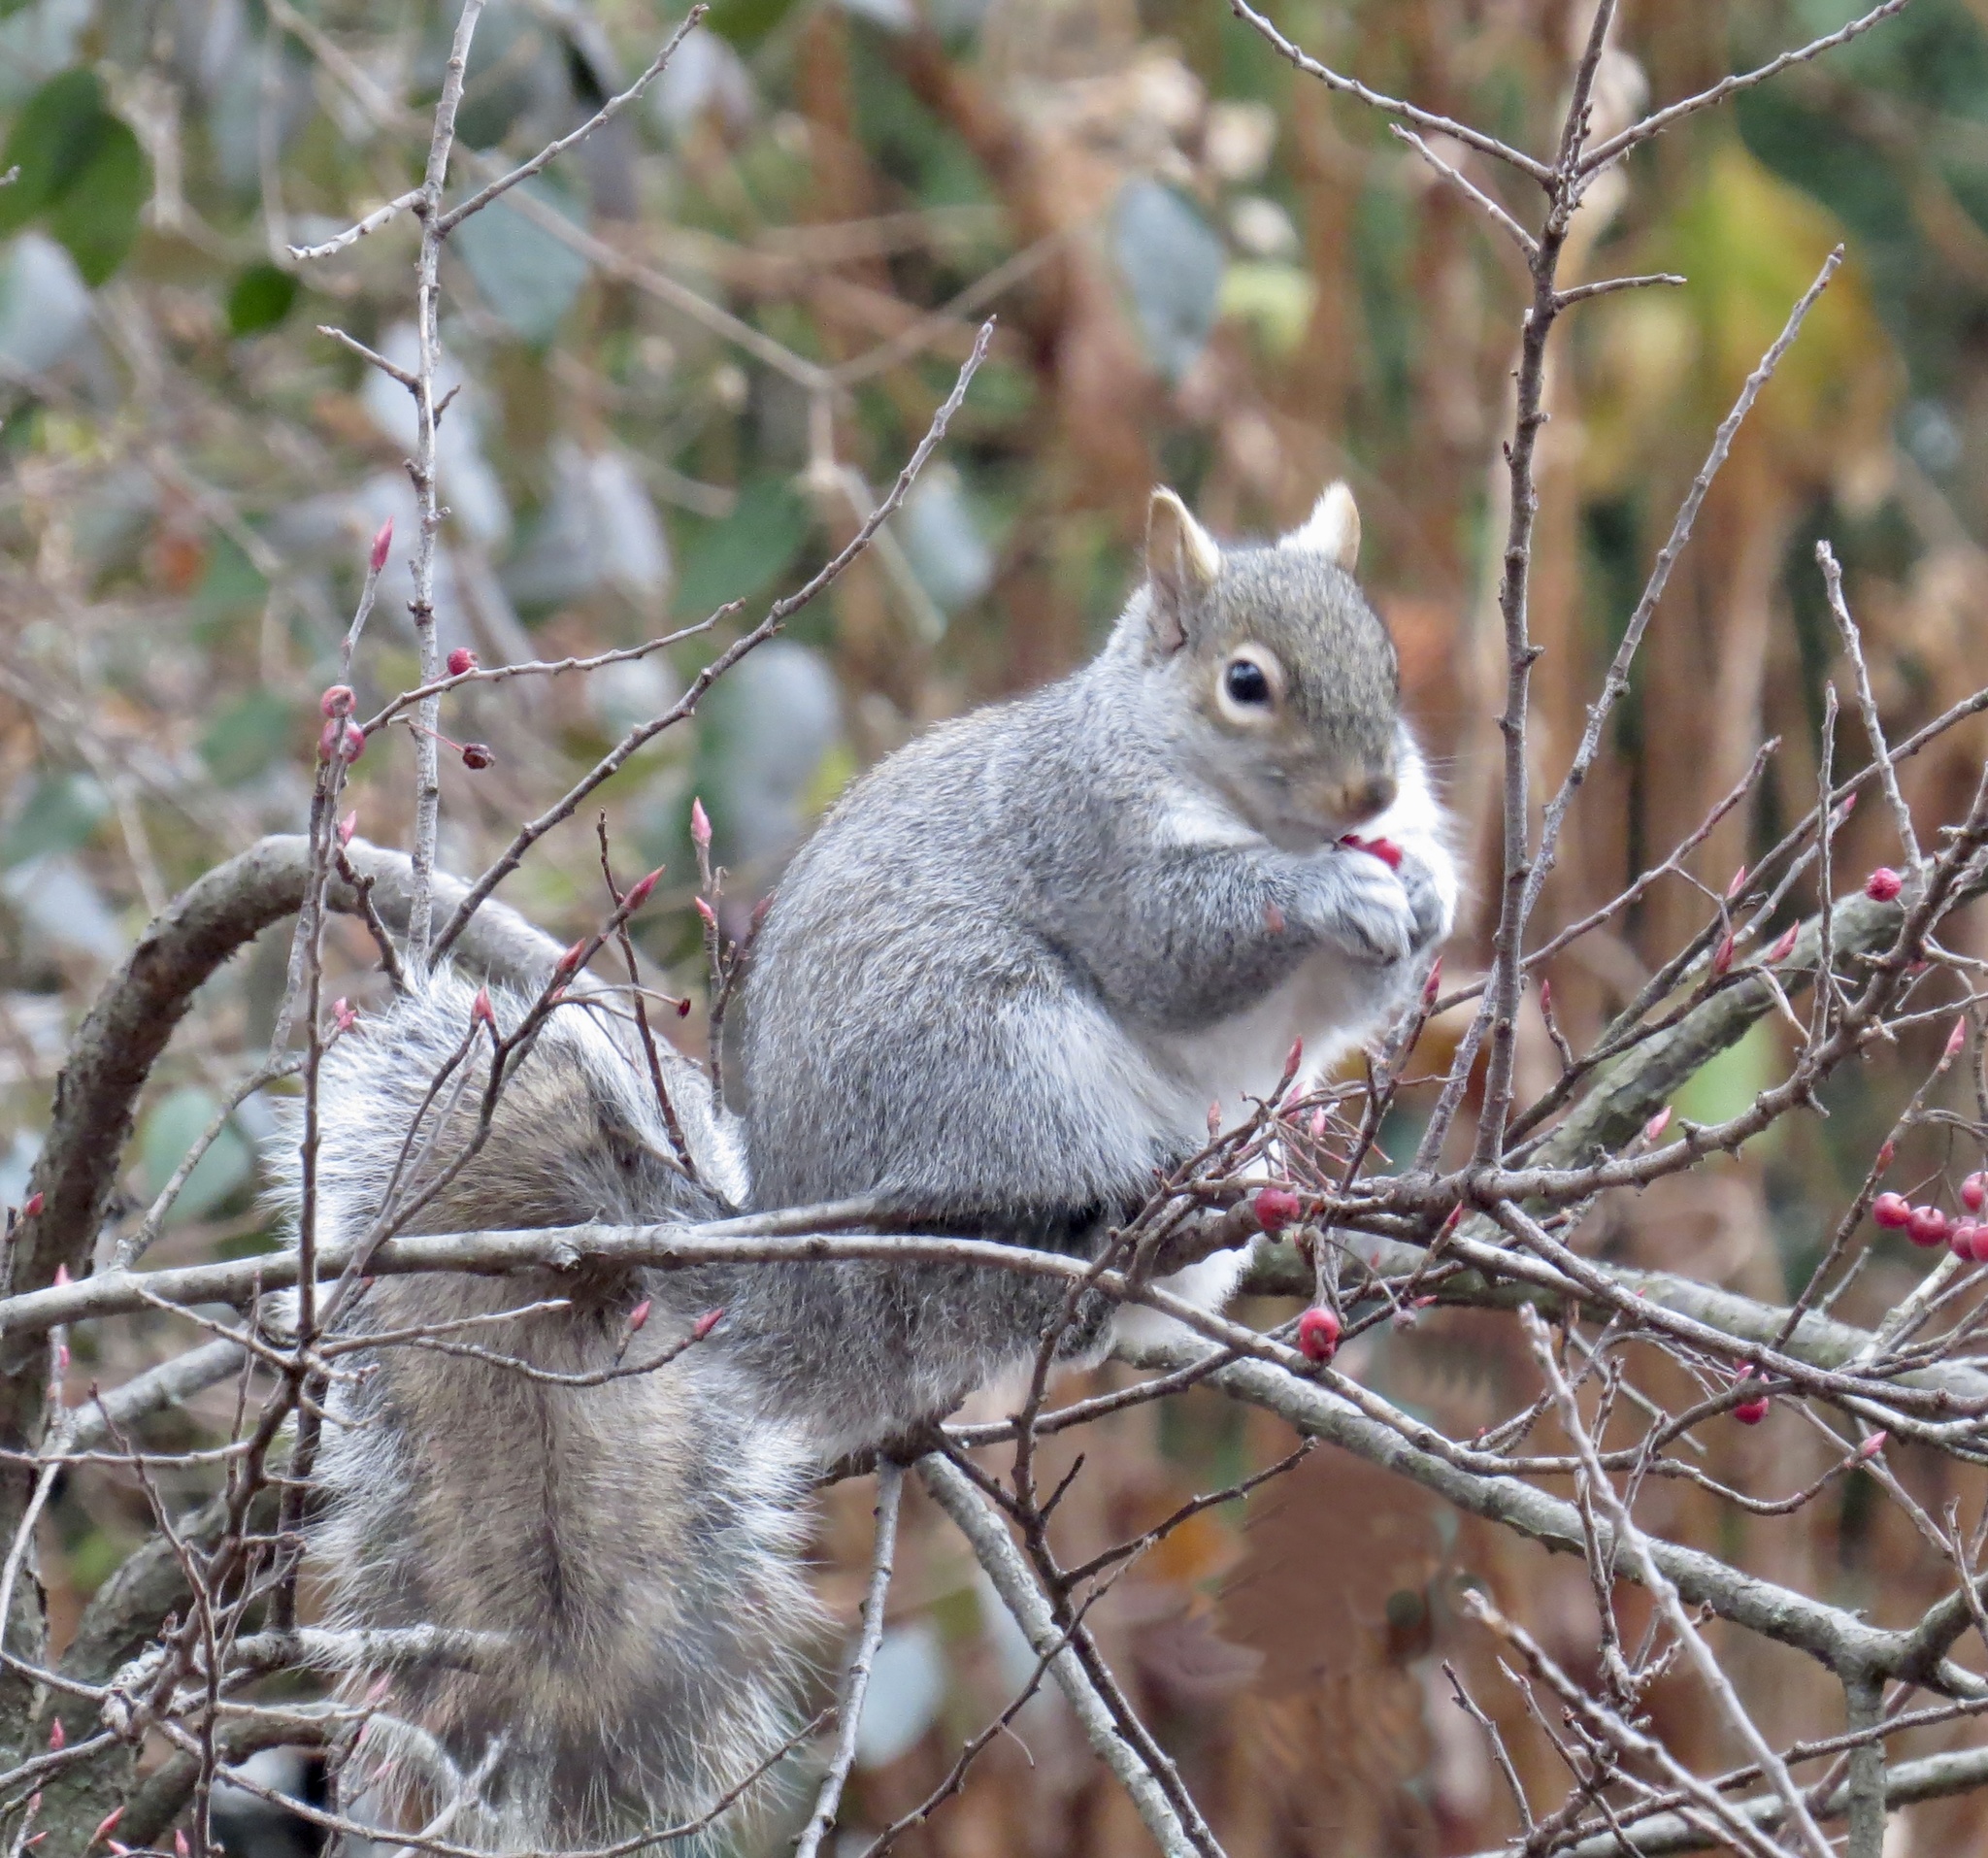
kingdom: Animalia
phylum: Chordata
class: Mammalia
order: Rodentia
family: Sciuridae
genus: Sciurus
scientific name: Sciurus carolinensis
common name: Eastern gray squirrel
